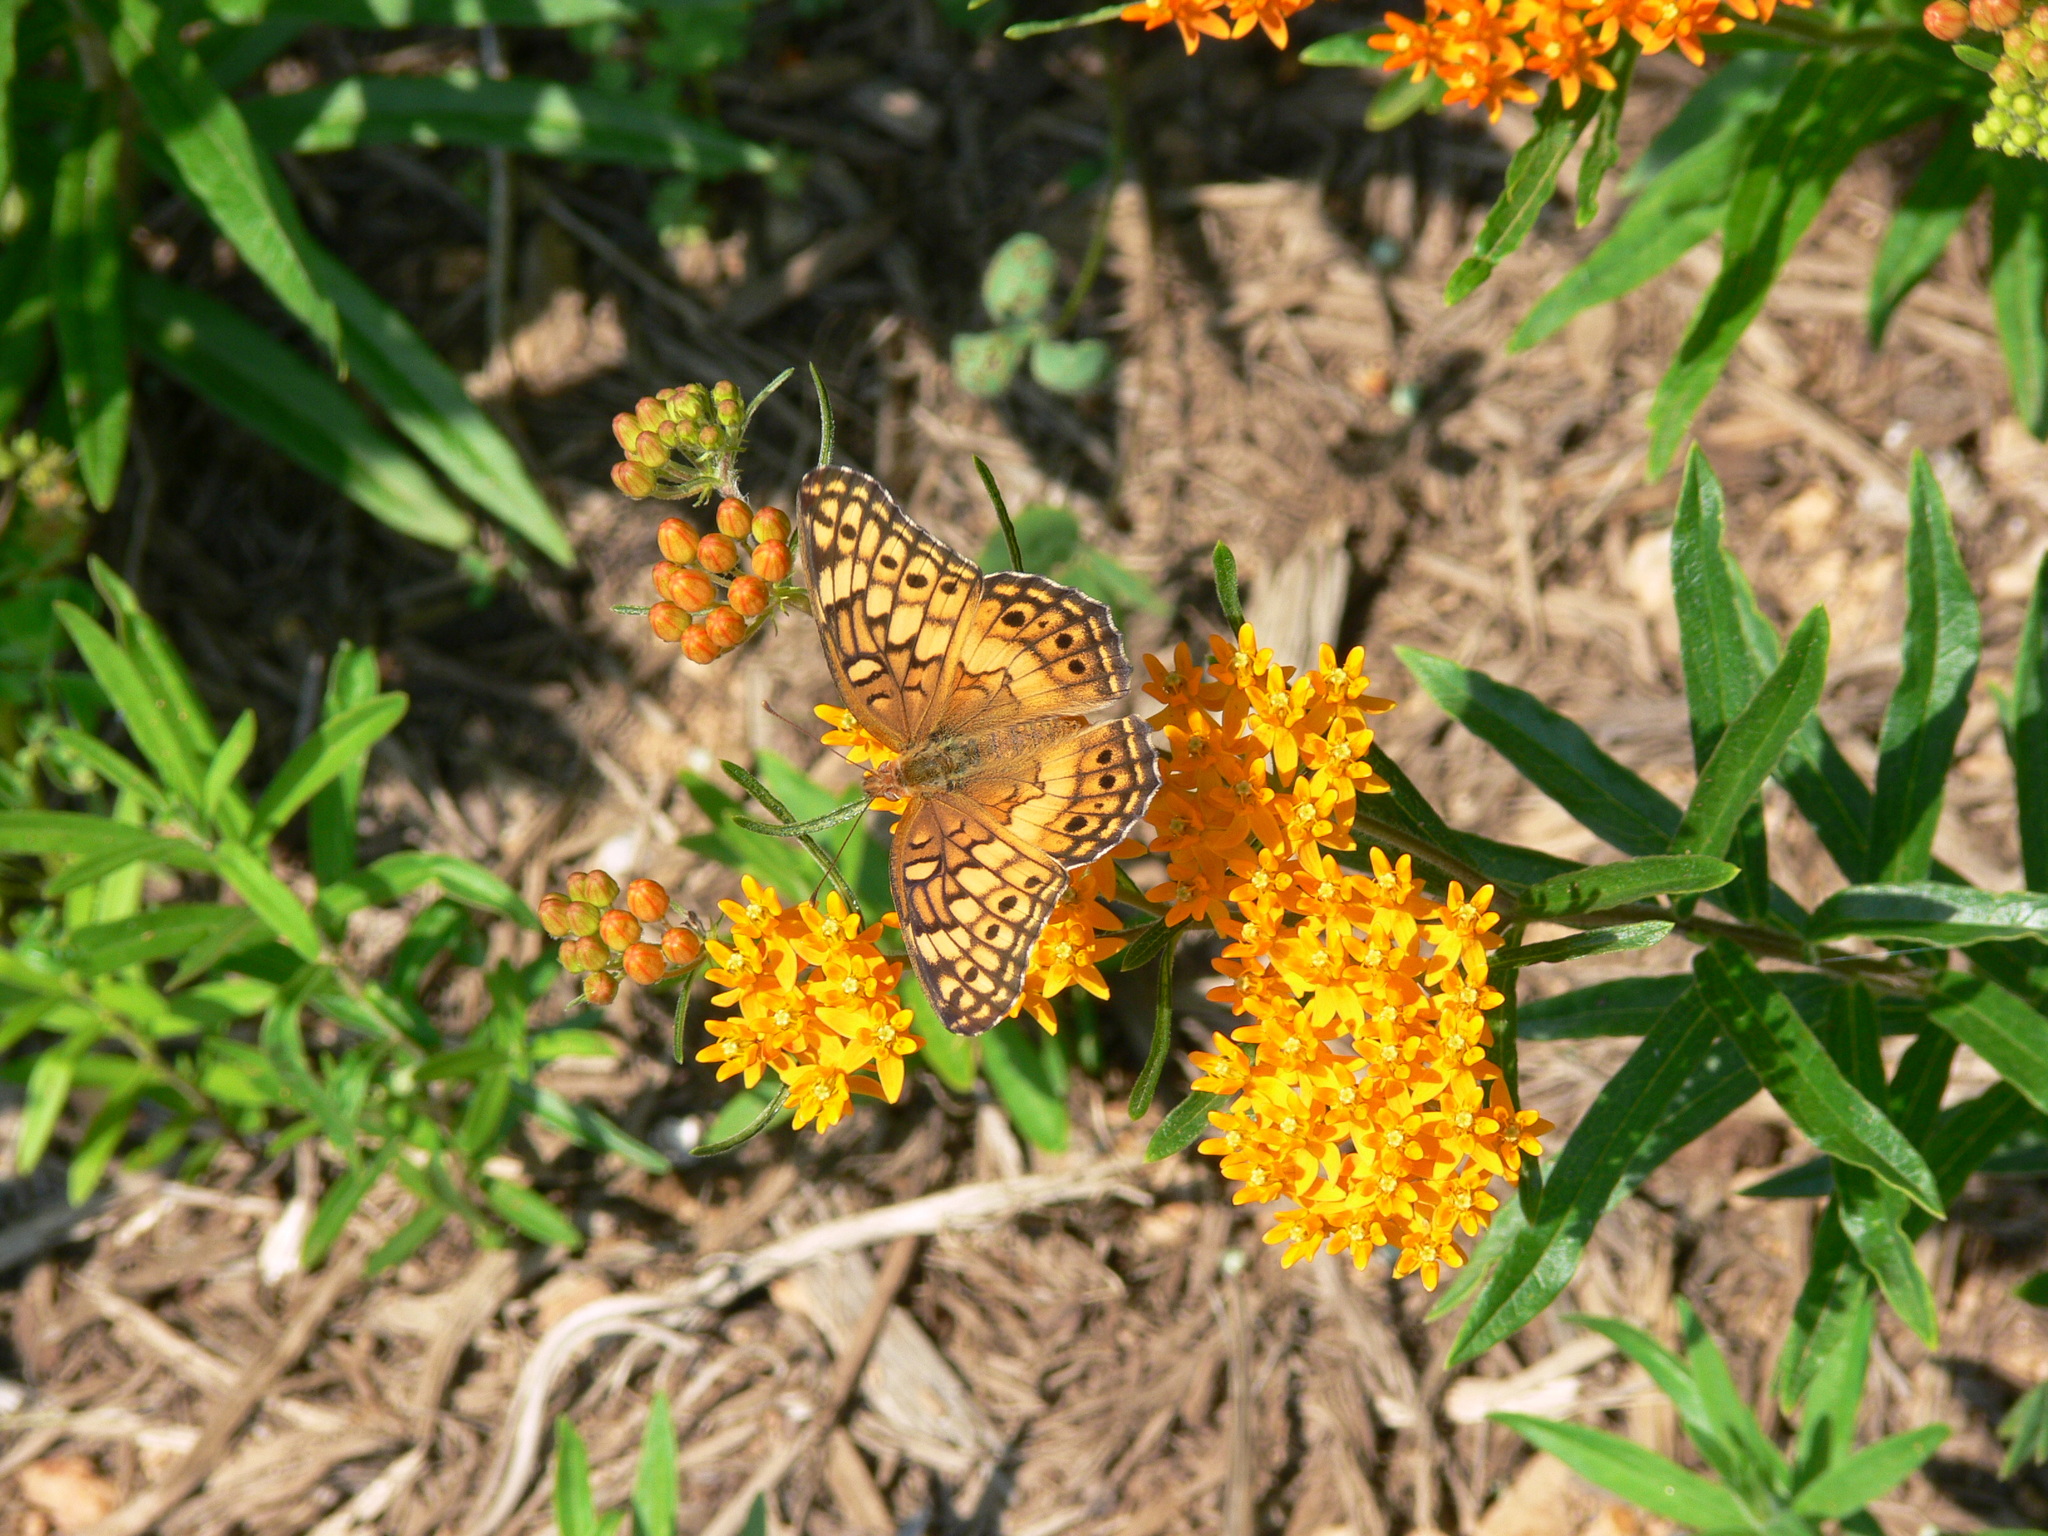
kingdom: Animalia
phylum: Arthropoda
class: Insecta
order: Lepidoptera
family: Nymphalidae
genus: Euptoieta
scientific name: Euptoieta claudia
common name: Variegated fritillary
